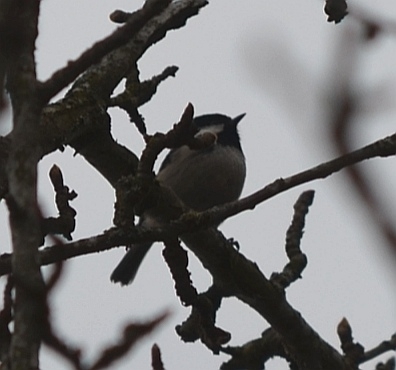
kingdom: Animalia
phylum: Chordata
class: Aves
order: Passeriformes
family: Paridae
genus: Periparus
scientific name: Periparus ater
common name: Coal tit
